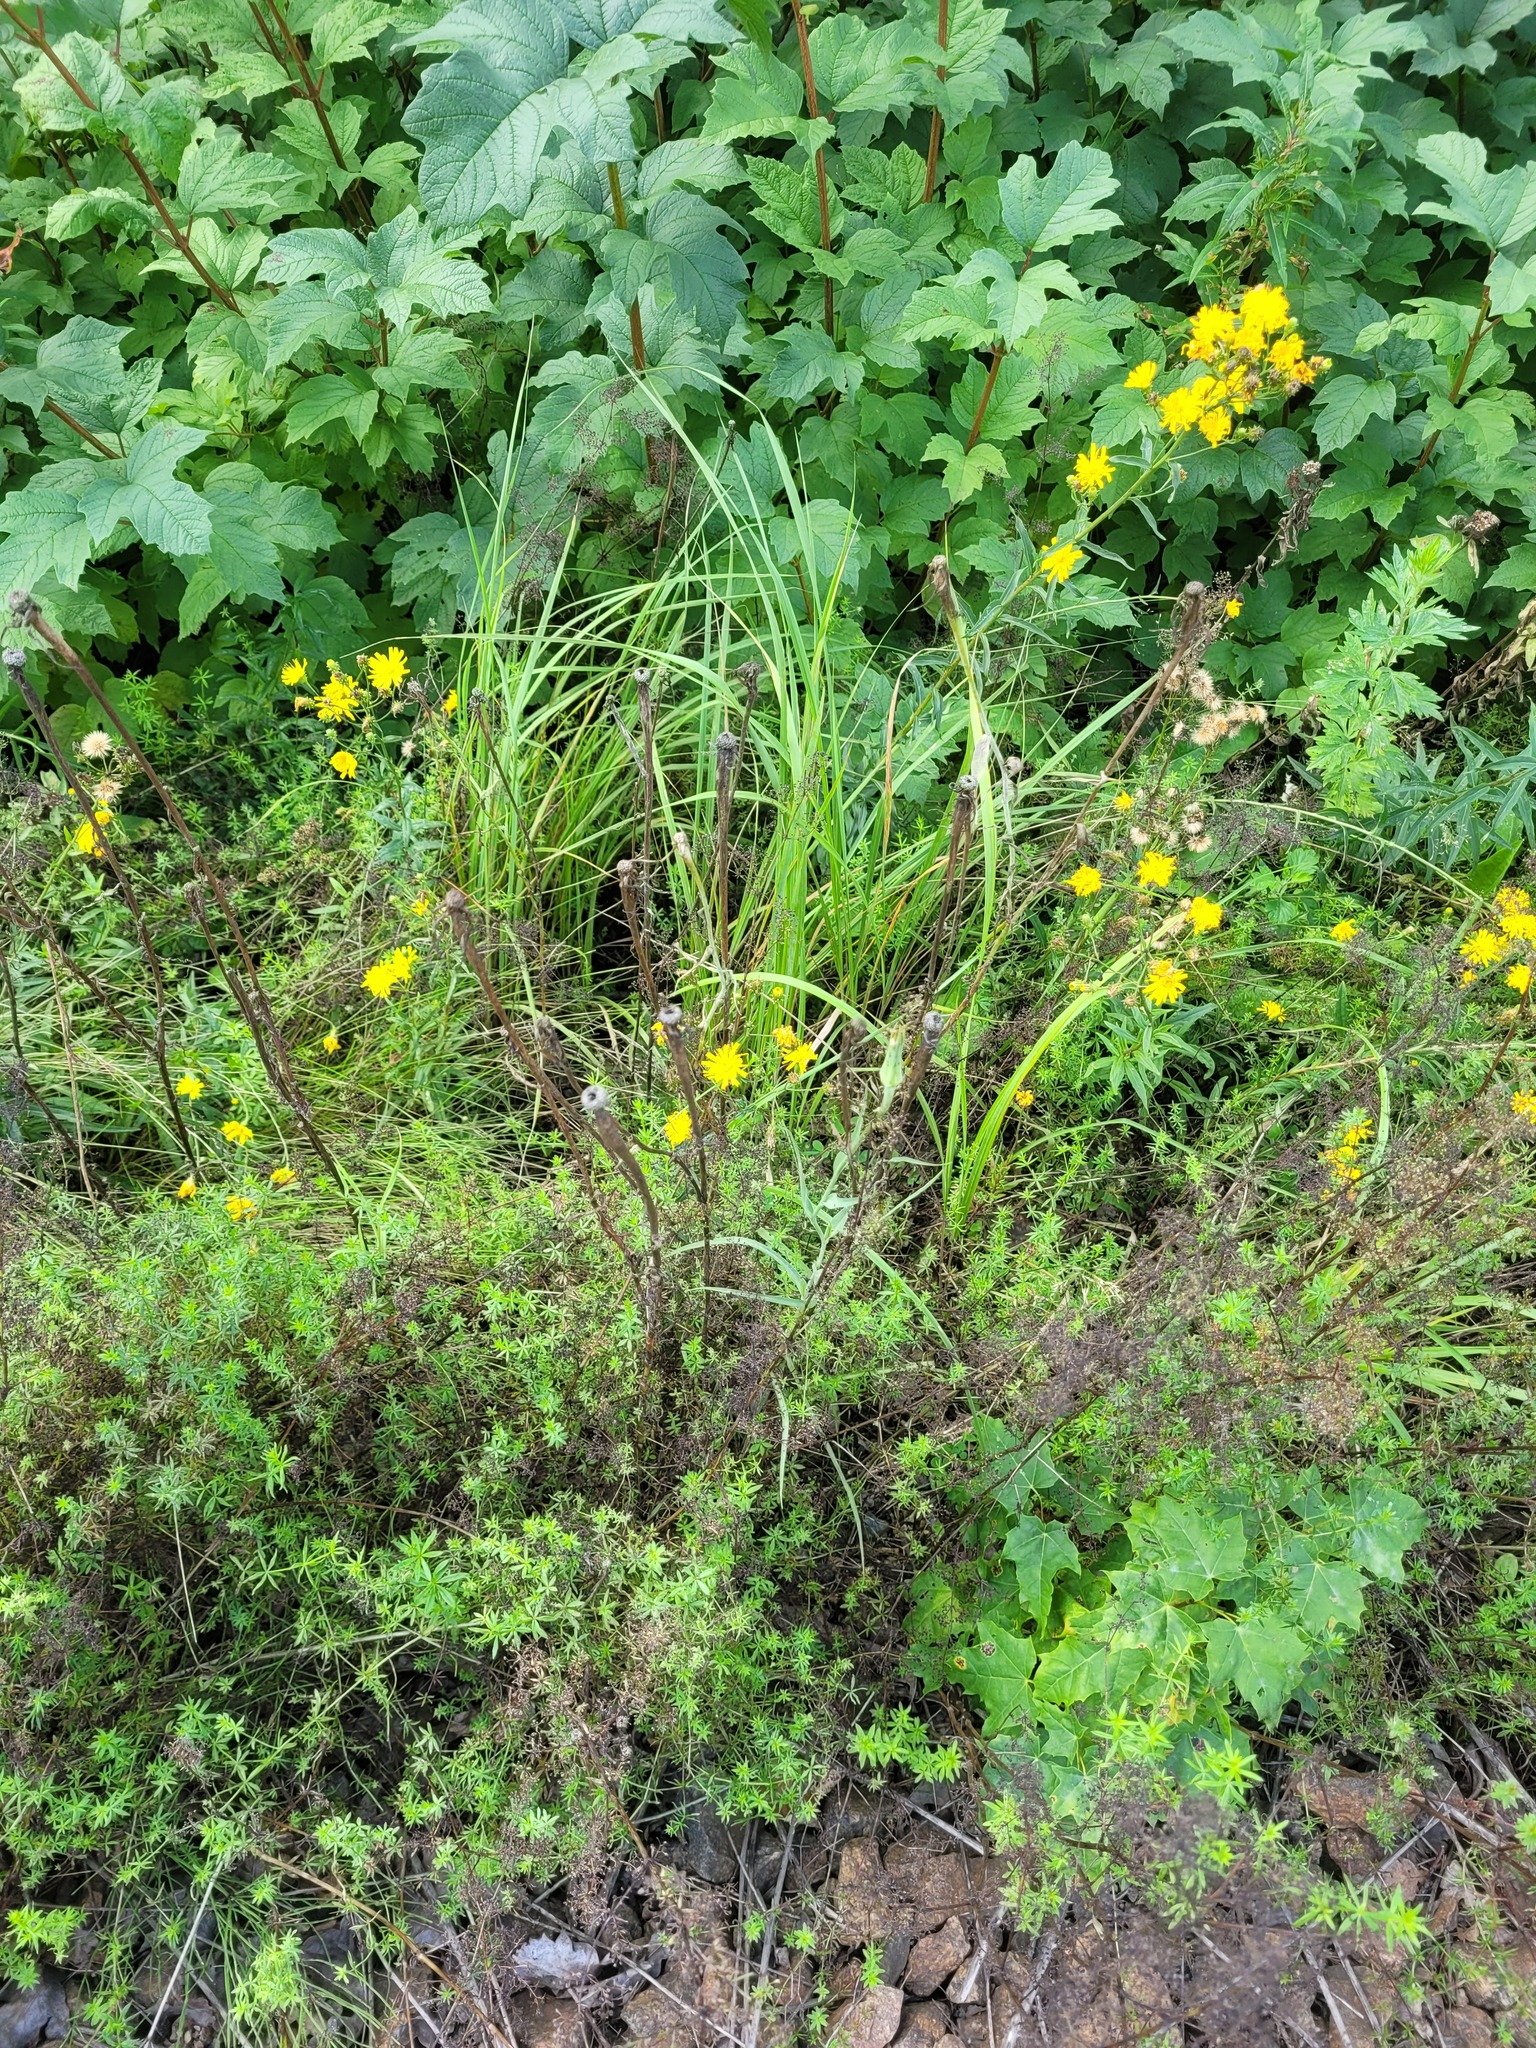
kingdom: Plantae
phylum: Tracheophyta
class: Magnoliopsida
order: Asterales
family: Asteraceae
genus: Tragopogon
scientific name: Tragopogon dubius
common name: Yellow salsify
